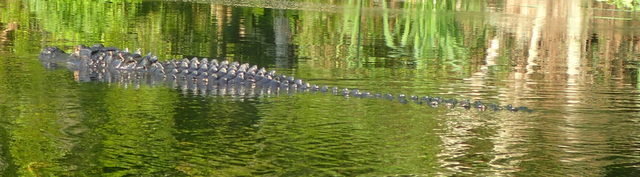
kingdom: Animalia
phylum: Chordata
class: Crocodylia
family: Alligatoridae
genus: Alligator
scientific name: Alligator mississippiensis
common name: American alligator
